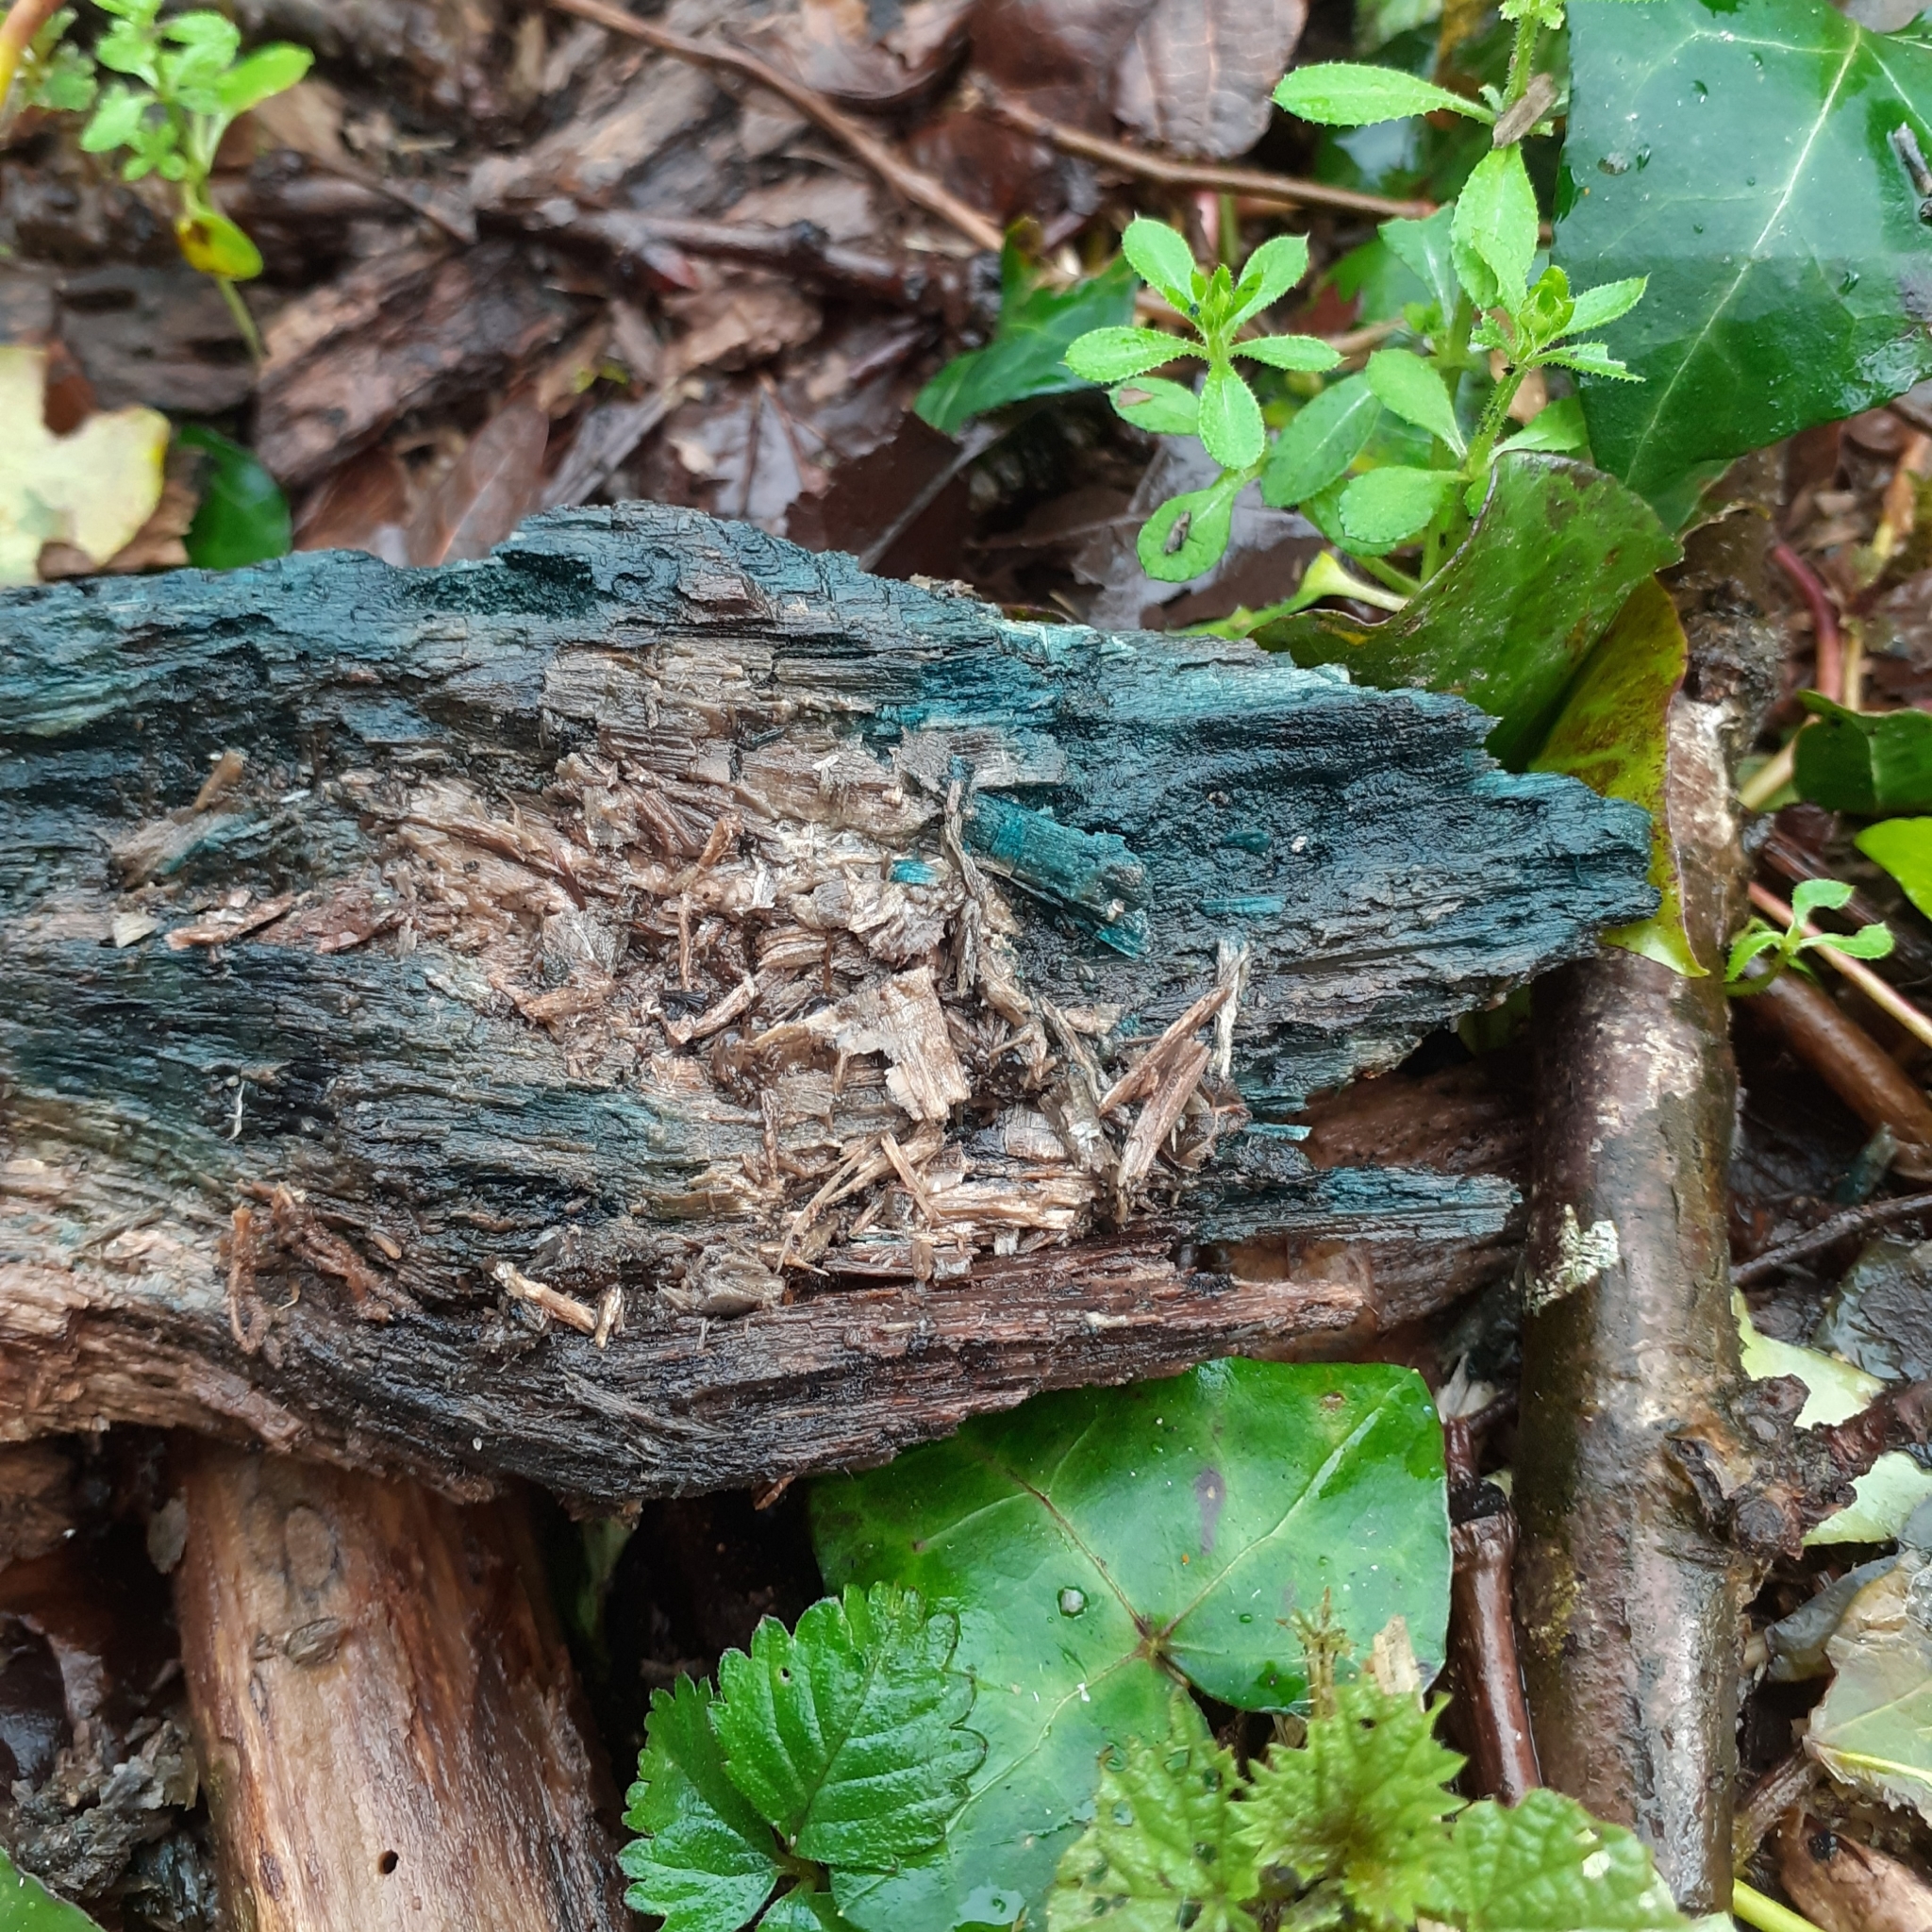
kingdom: Fungi
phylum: Ascomycota
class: Leotiomycetes
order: Helotiales
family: Chlorociboriaceae
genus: Chlorociboria
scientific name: Chlorociboria
